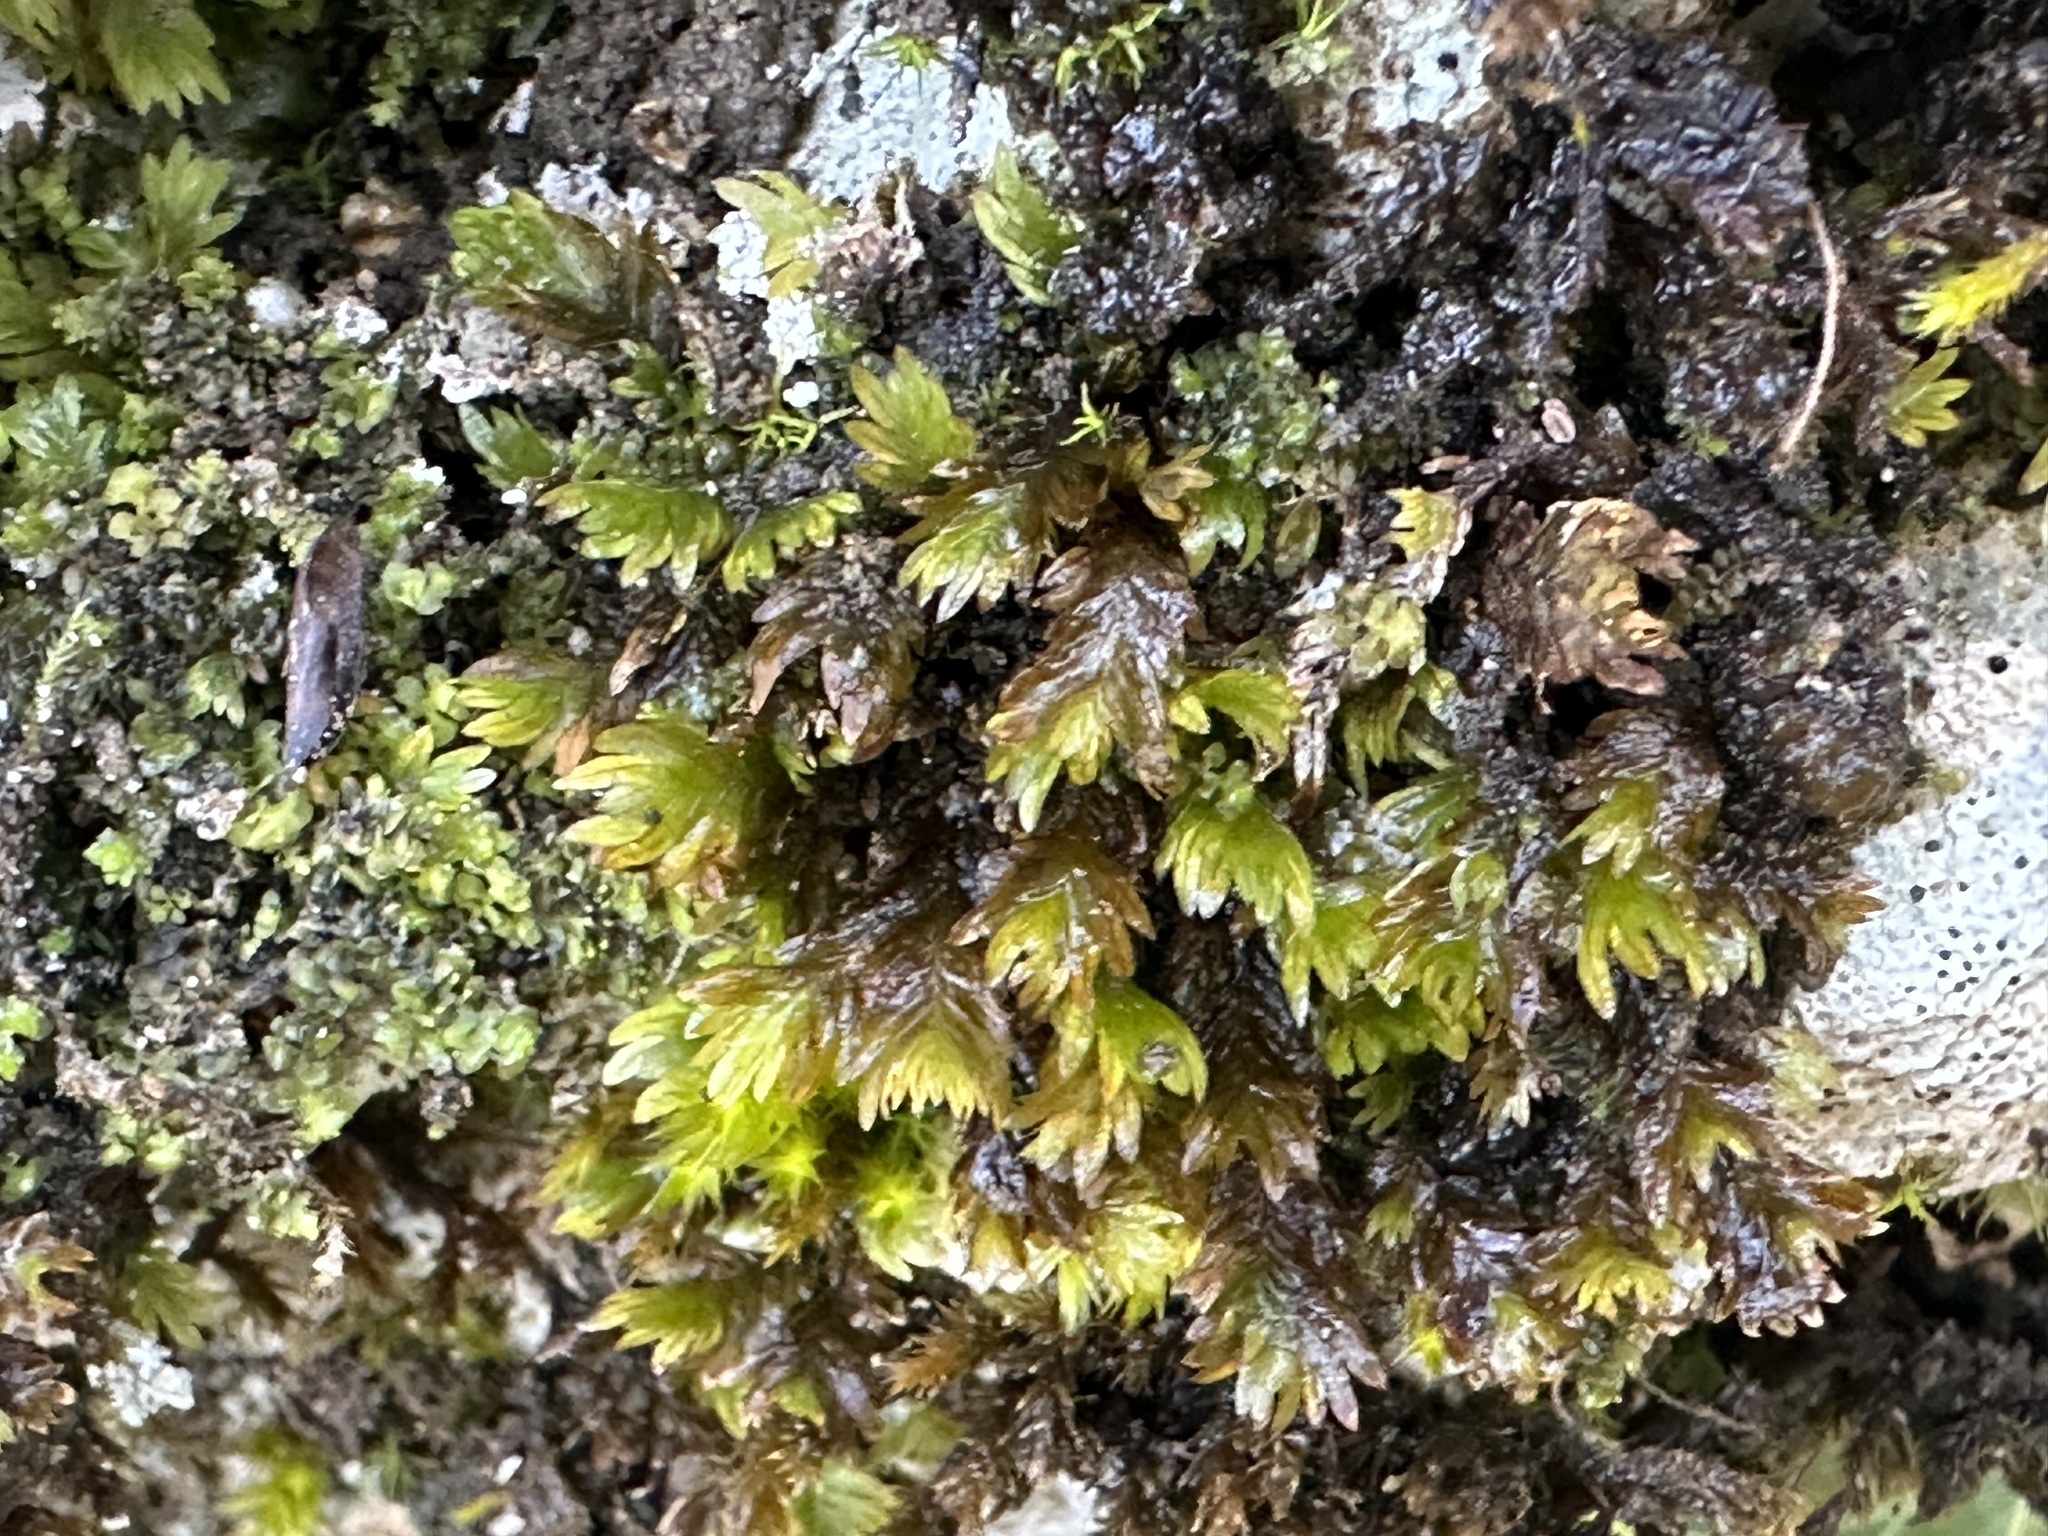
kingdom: Plantae
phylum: Bryophyta
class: Bryopsida
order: Dicranales
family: Fissidentaceae
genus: Fissidens
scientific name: Fissidens dubius
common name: Rock pocket moss
